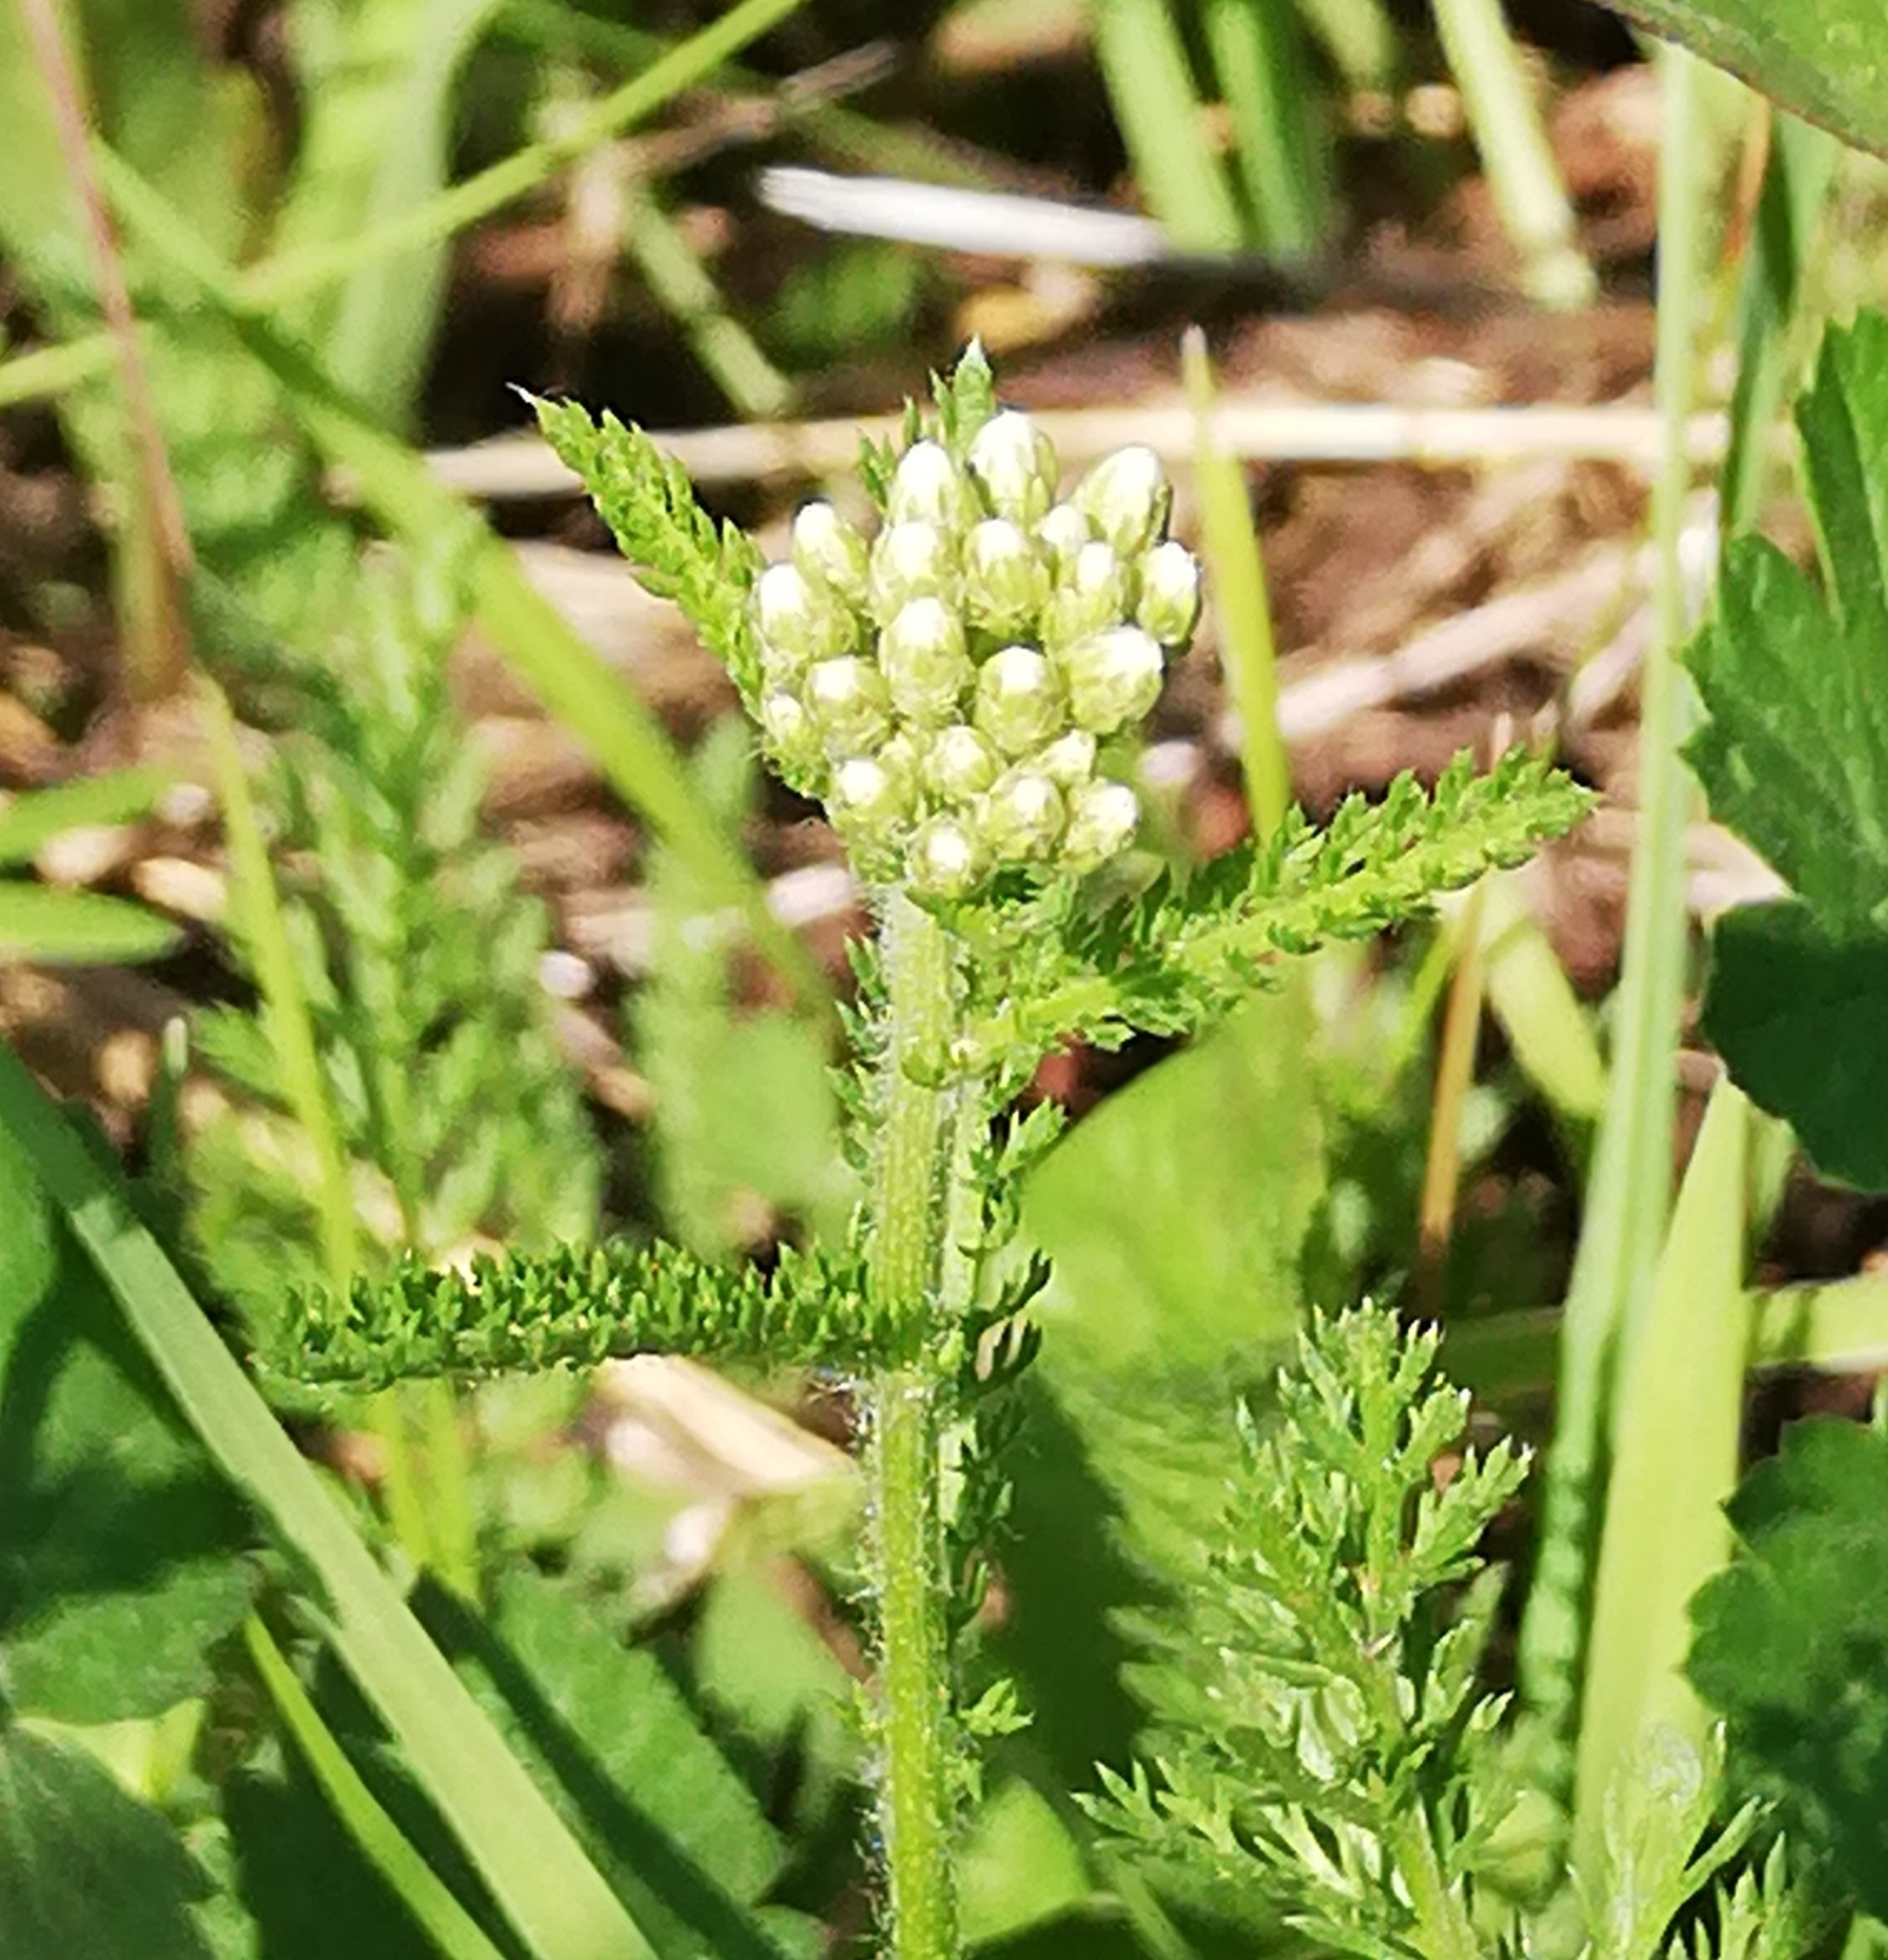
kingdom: Plantae
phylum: Tracheophyta
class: Magnoliopsida
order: Asterales
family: Asteraceae
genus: Achillea
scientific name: Achillea millefolium
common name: Yarrow
